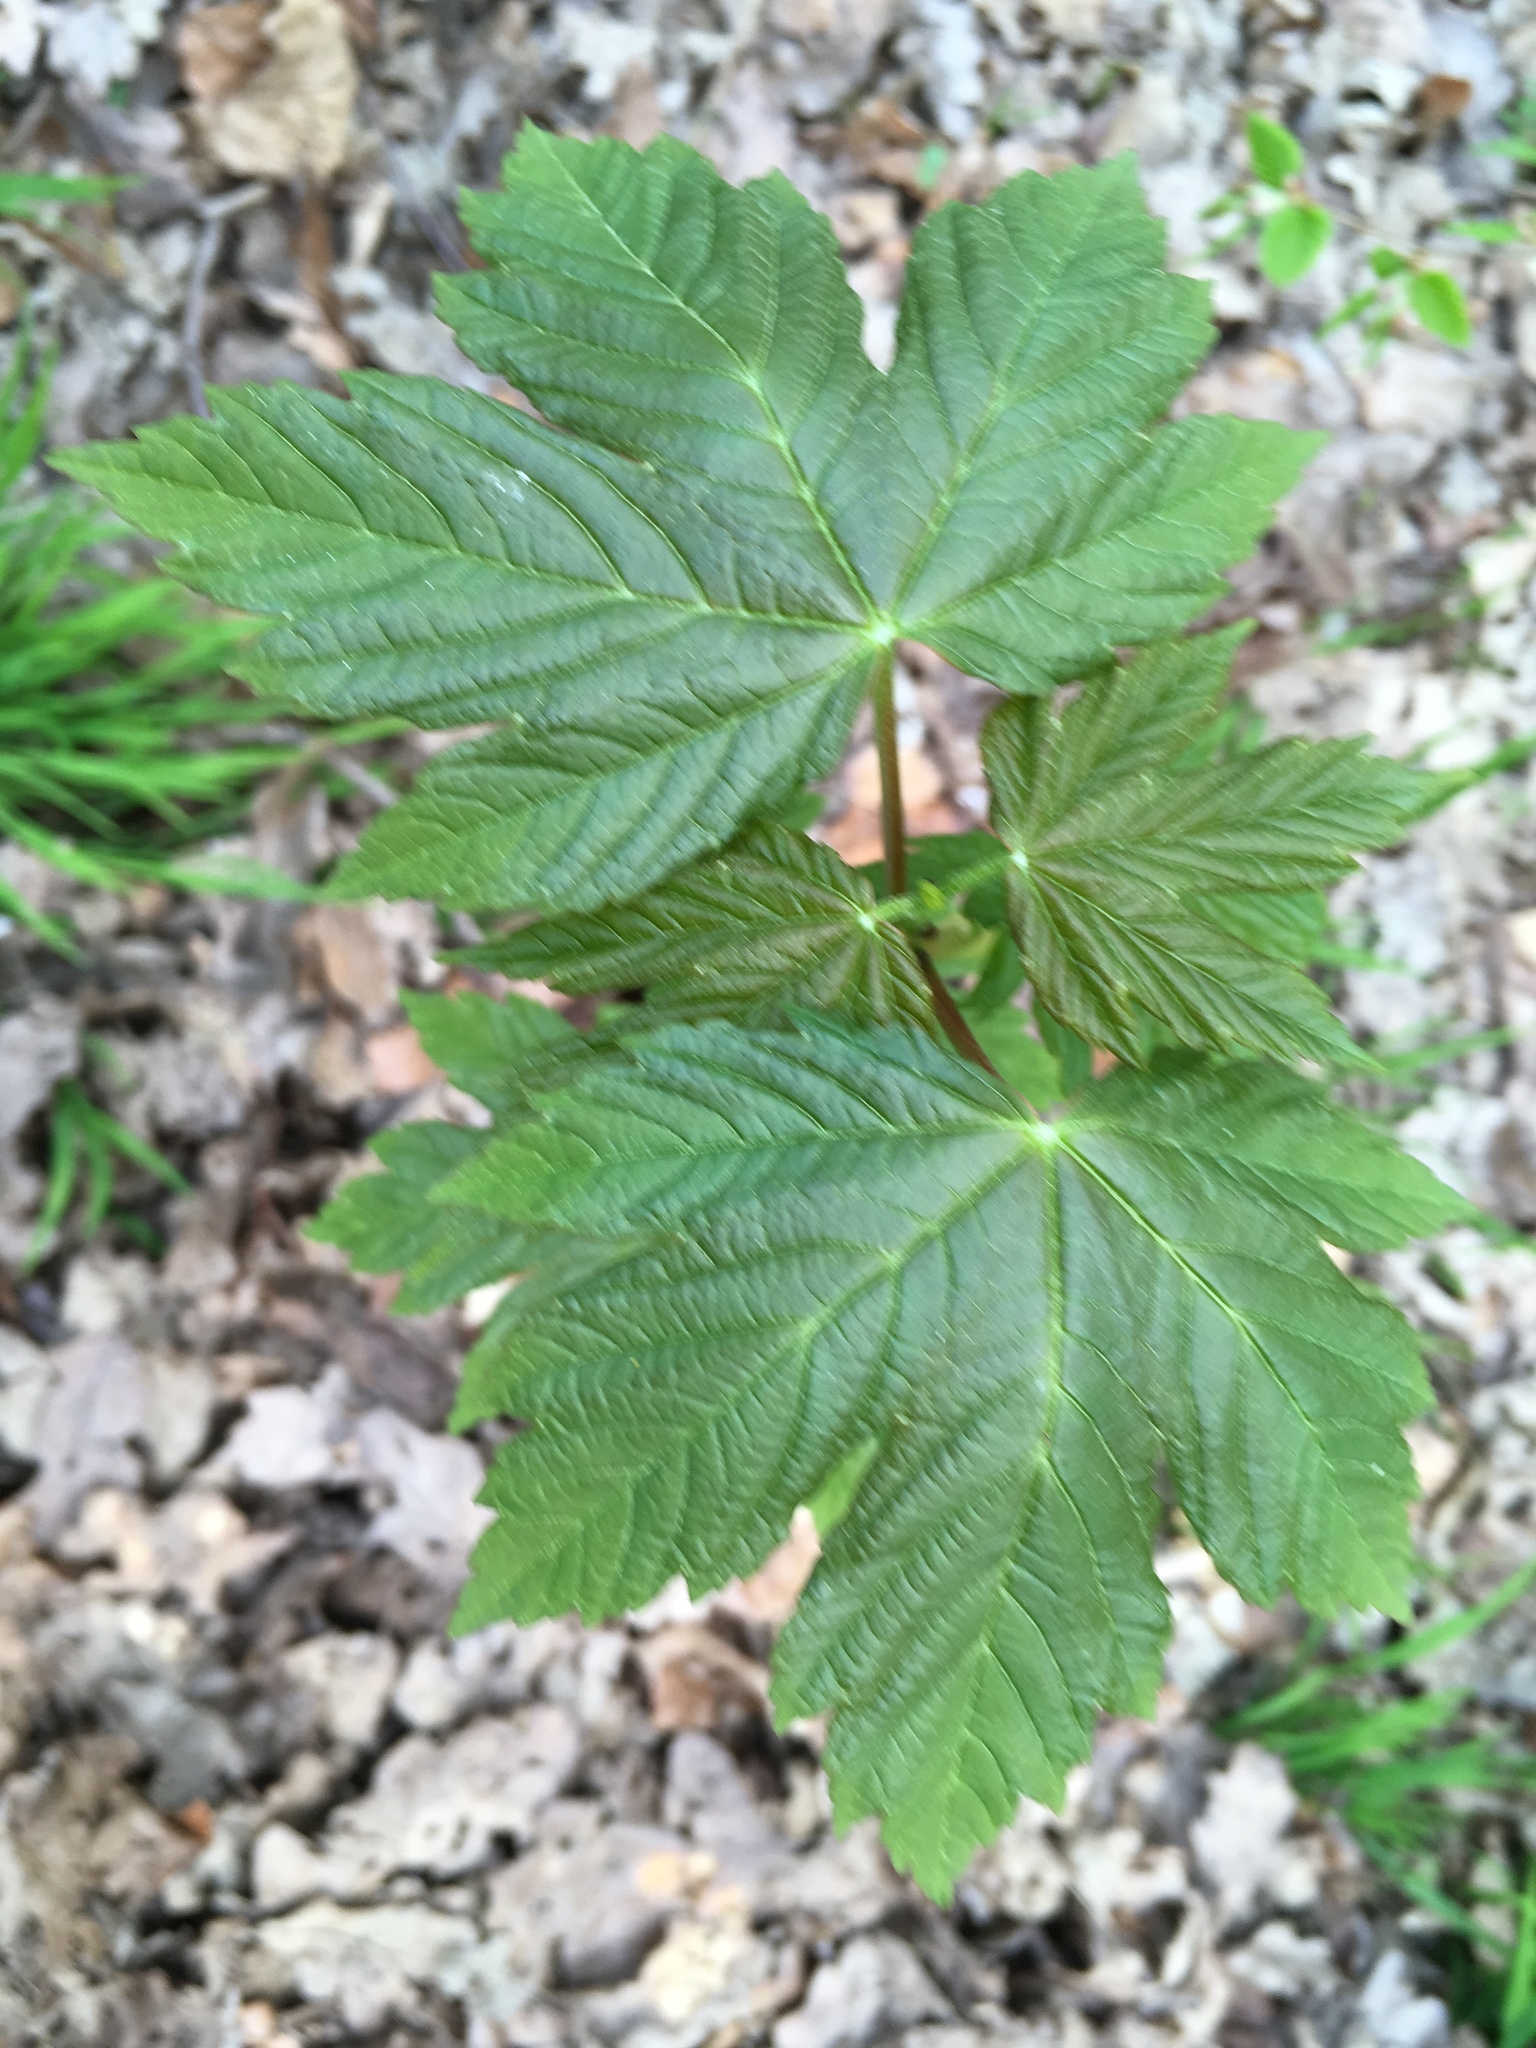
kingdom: Plantae
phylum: Tracheophyta
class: Magnoliopsida
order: Sapindales
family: Sapindaceae
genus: Acer
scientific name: Acer pseudoplatanus
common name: Sycamore
